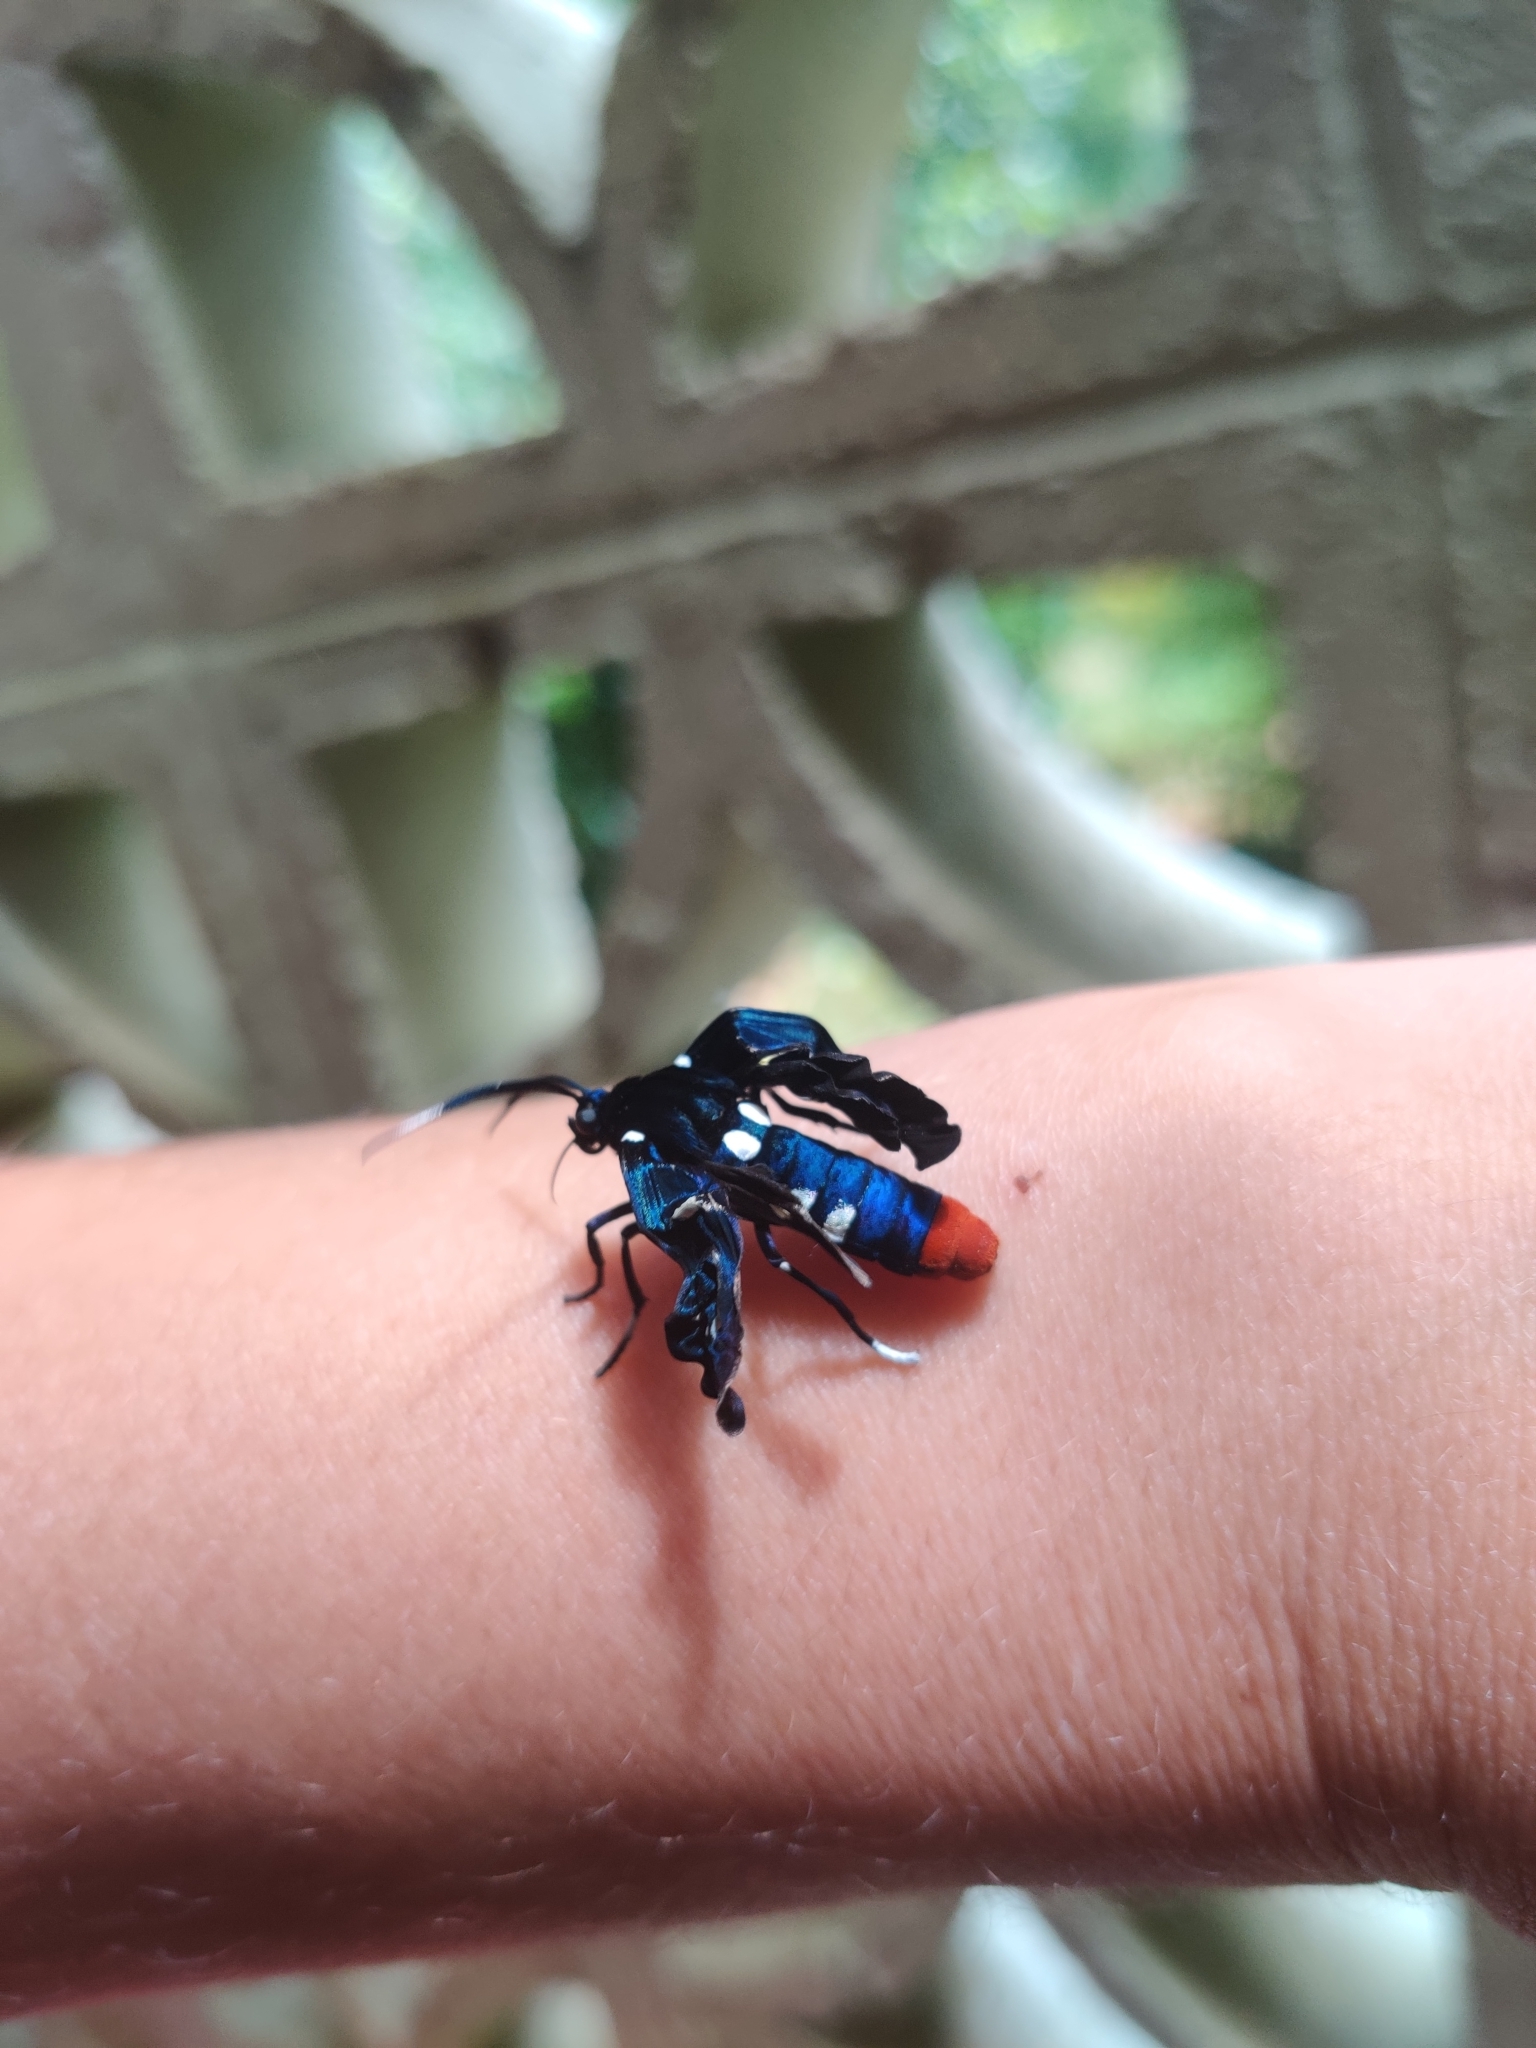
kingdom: Animalia
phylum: Arthropoda
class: Insecta
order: Lepidoptera
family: Erebidae
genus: Syntomeida
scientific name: Syntomeida epilais
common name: Polka-dot wasp moth
